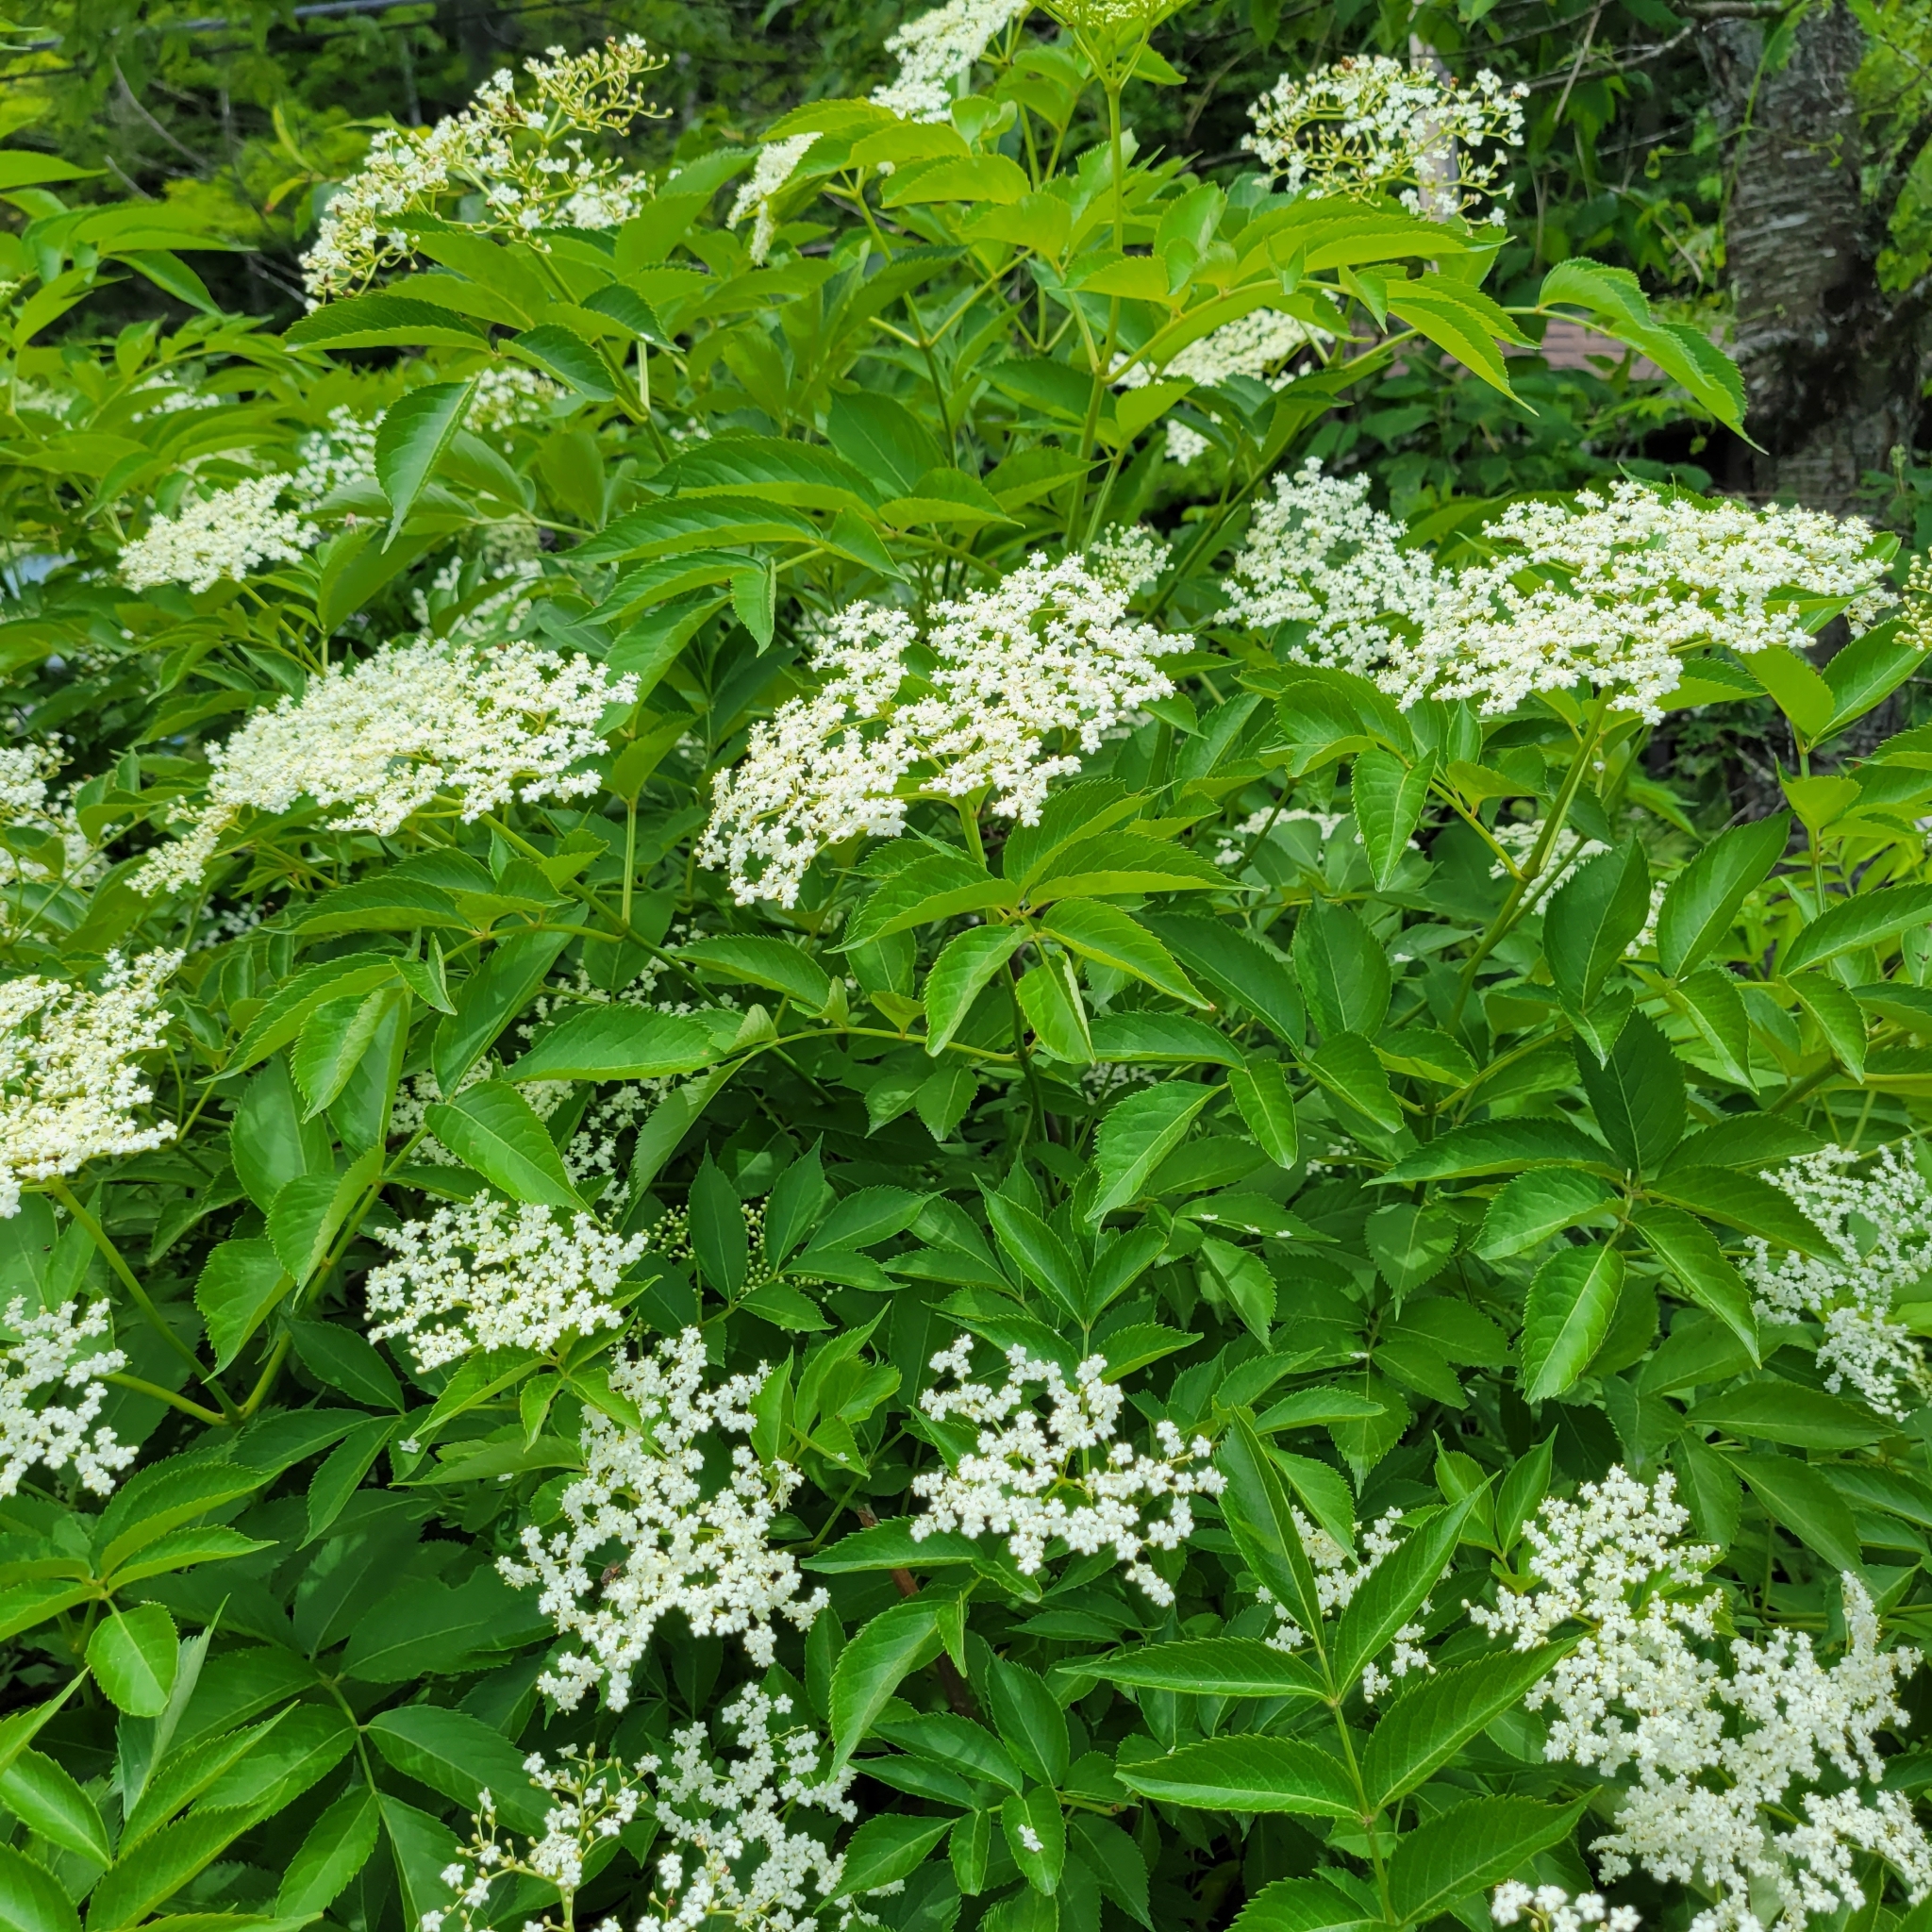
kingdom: Plantae
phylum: Tracheophyta
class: Magnoliopsida
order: Dipsacales
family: Viburnaceae
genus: Sambucus
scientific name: Sambucus canadensis
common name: American elder
